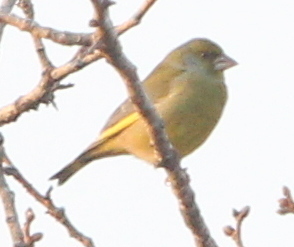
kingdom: Plantae
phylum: Tracheophyta
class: Liliopsida
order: Poales
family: Poaceae
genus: Chloris
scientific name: Chloris chloris
